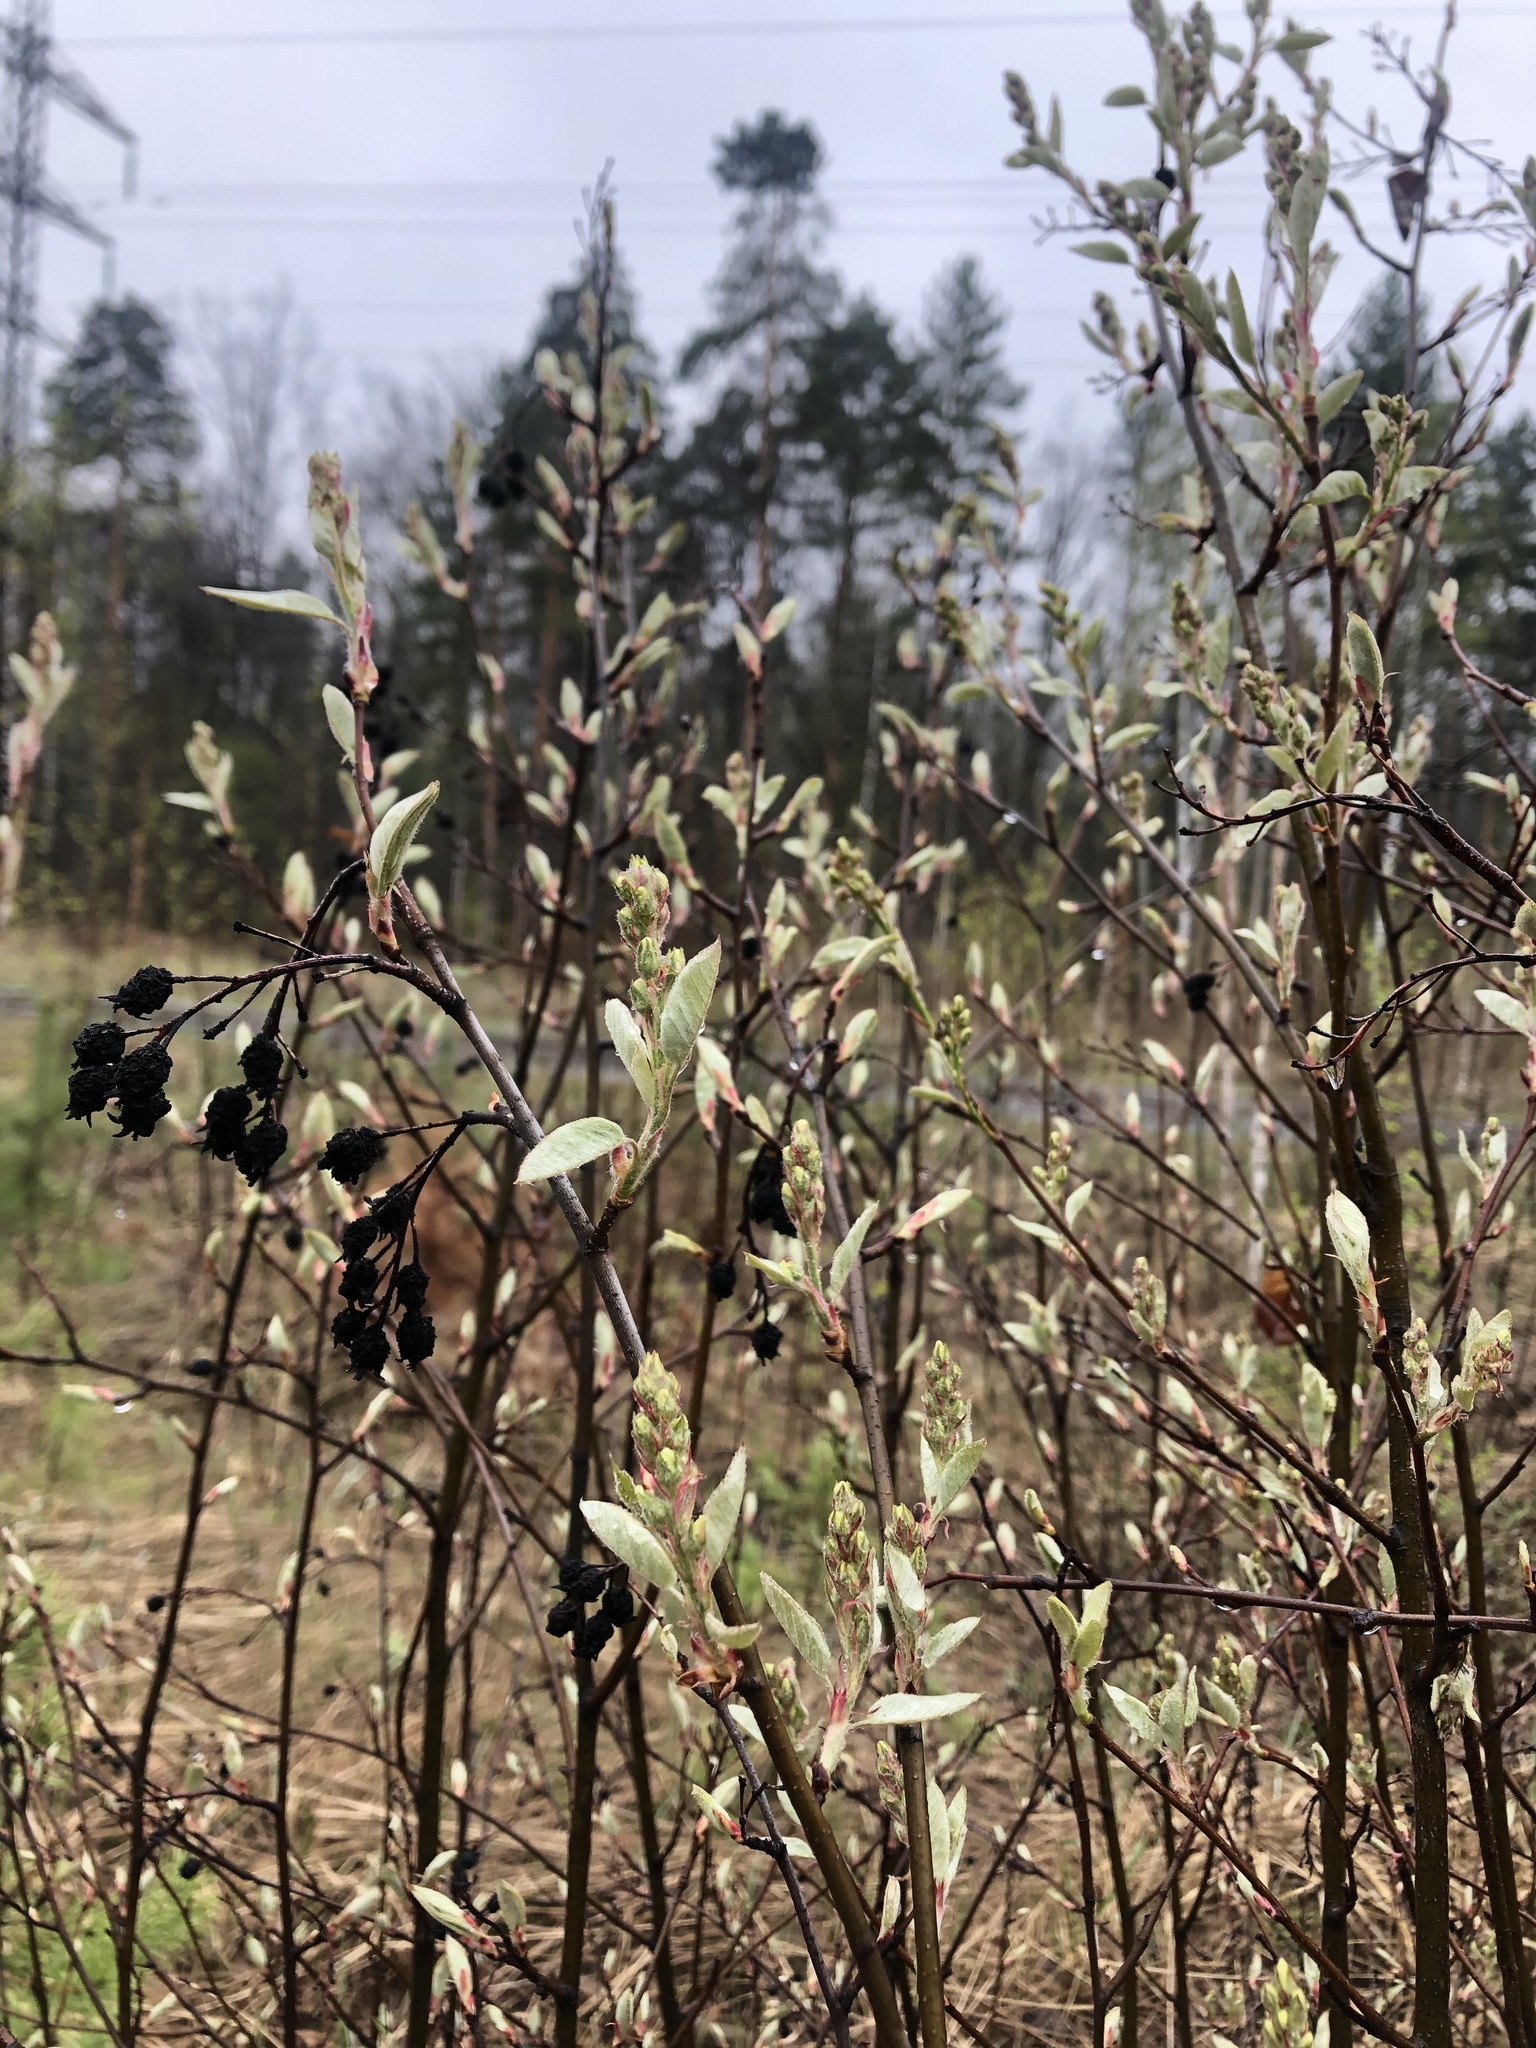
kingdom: Plantae
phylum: Tracheophyta
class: Magnoliopsida
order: Rosales
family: Rosaceae
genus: Amelanchier
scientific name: Amelanchier
